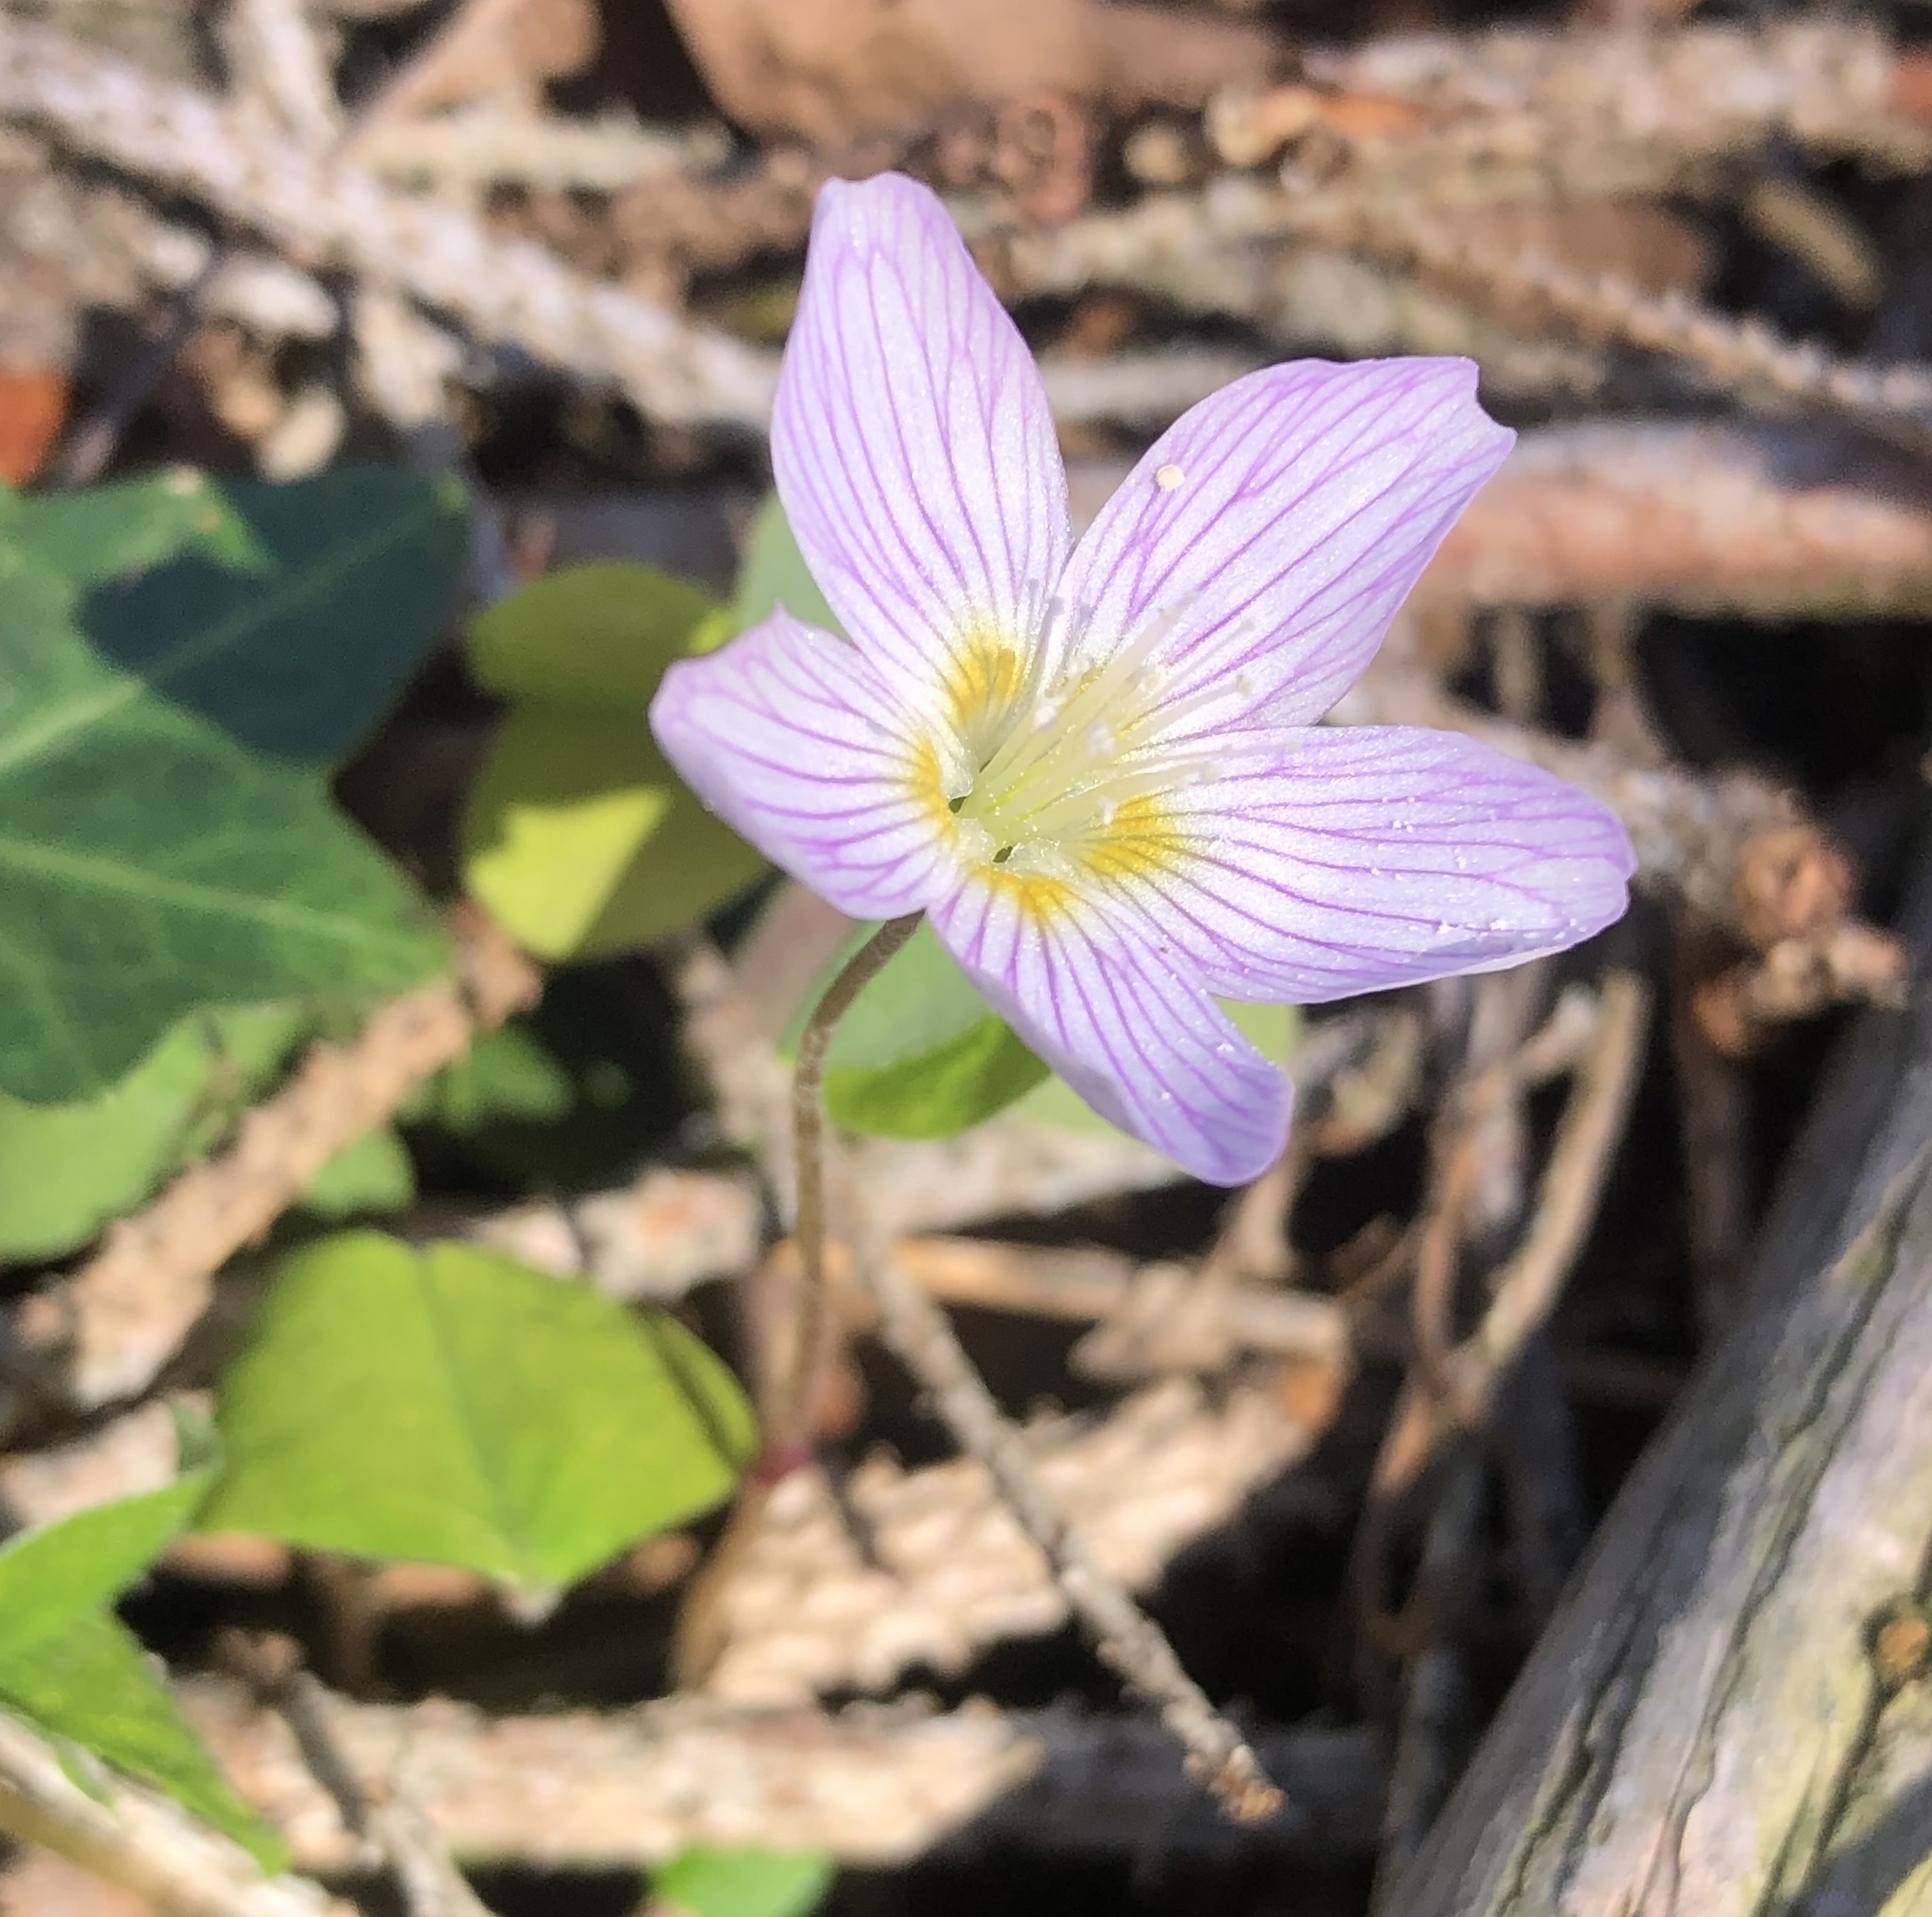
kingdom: Plantae
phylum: Tracheophyta
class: Magnoliopsida
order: Oxalidales
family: Oxalidaceae
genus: Oxalis
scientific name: Oxalis acetosella
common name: Wood-sorrel
